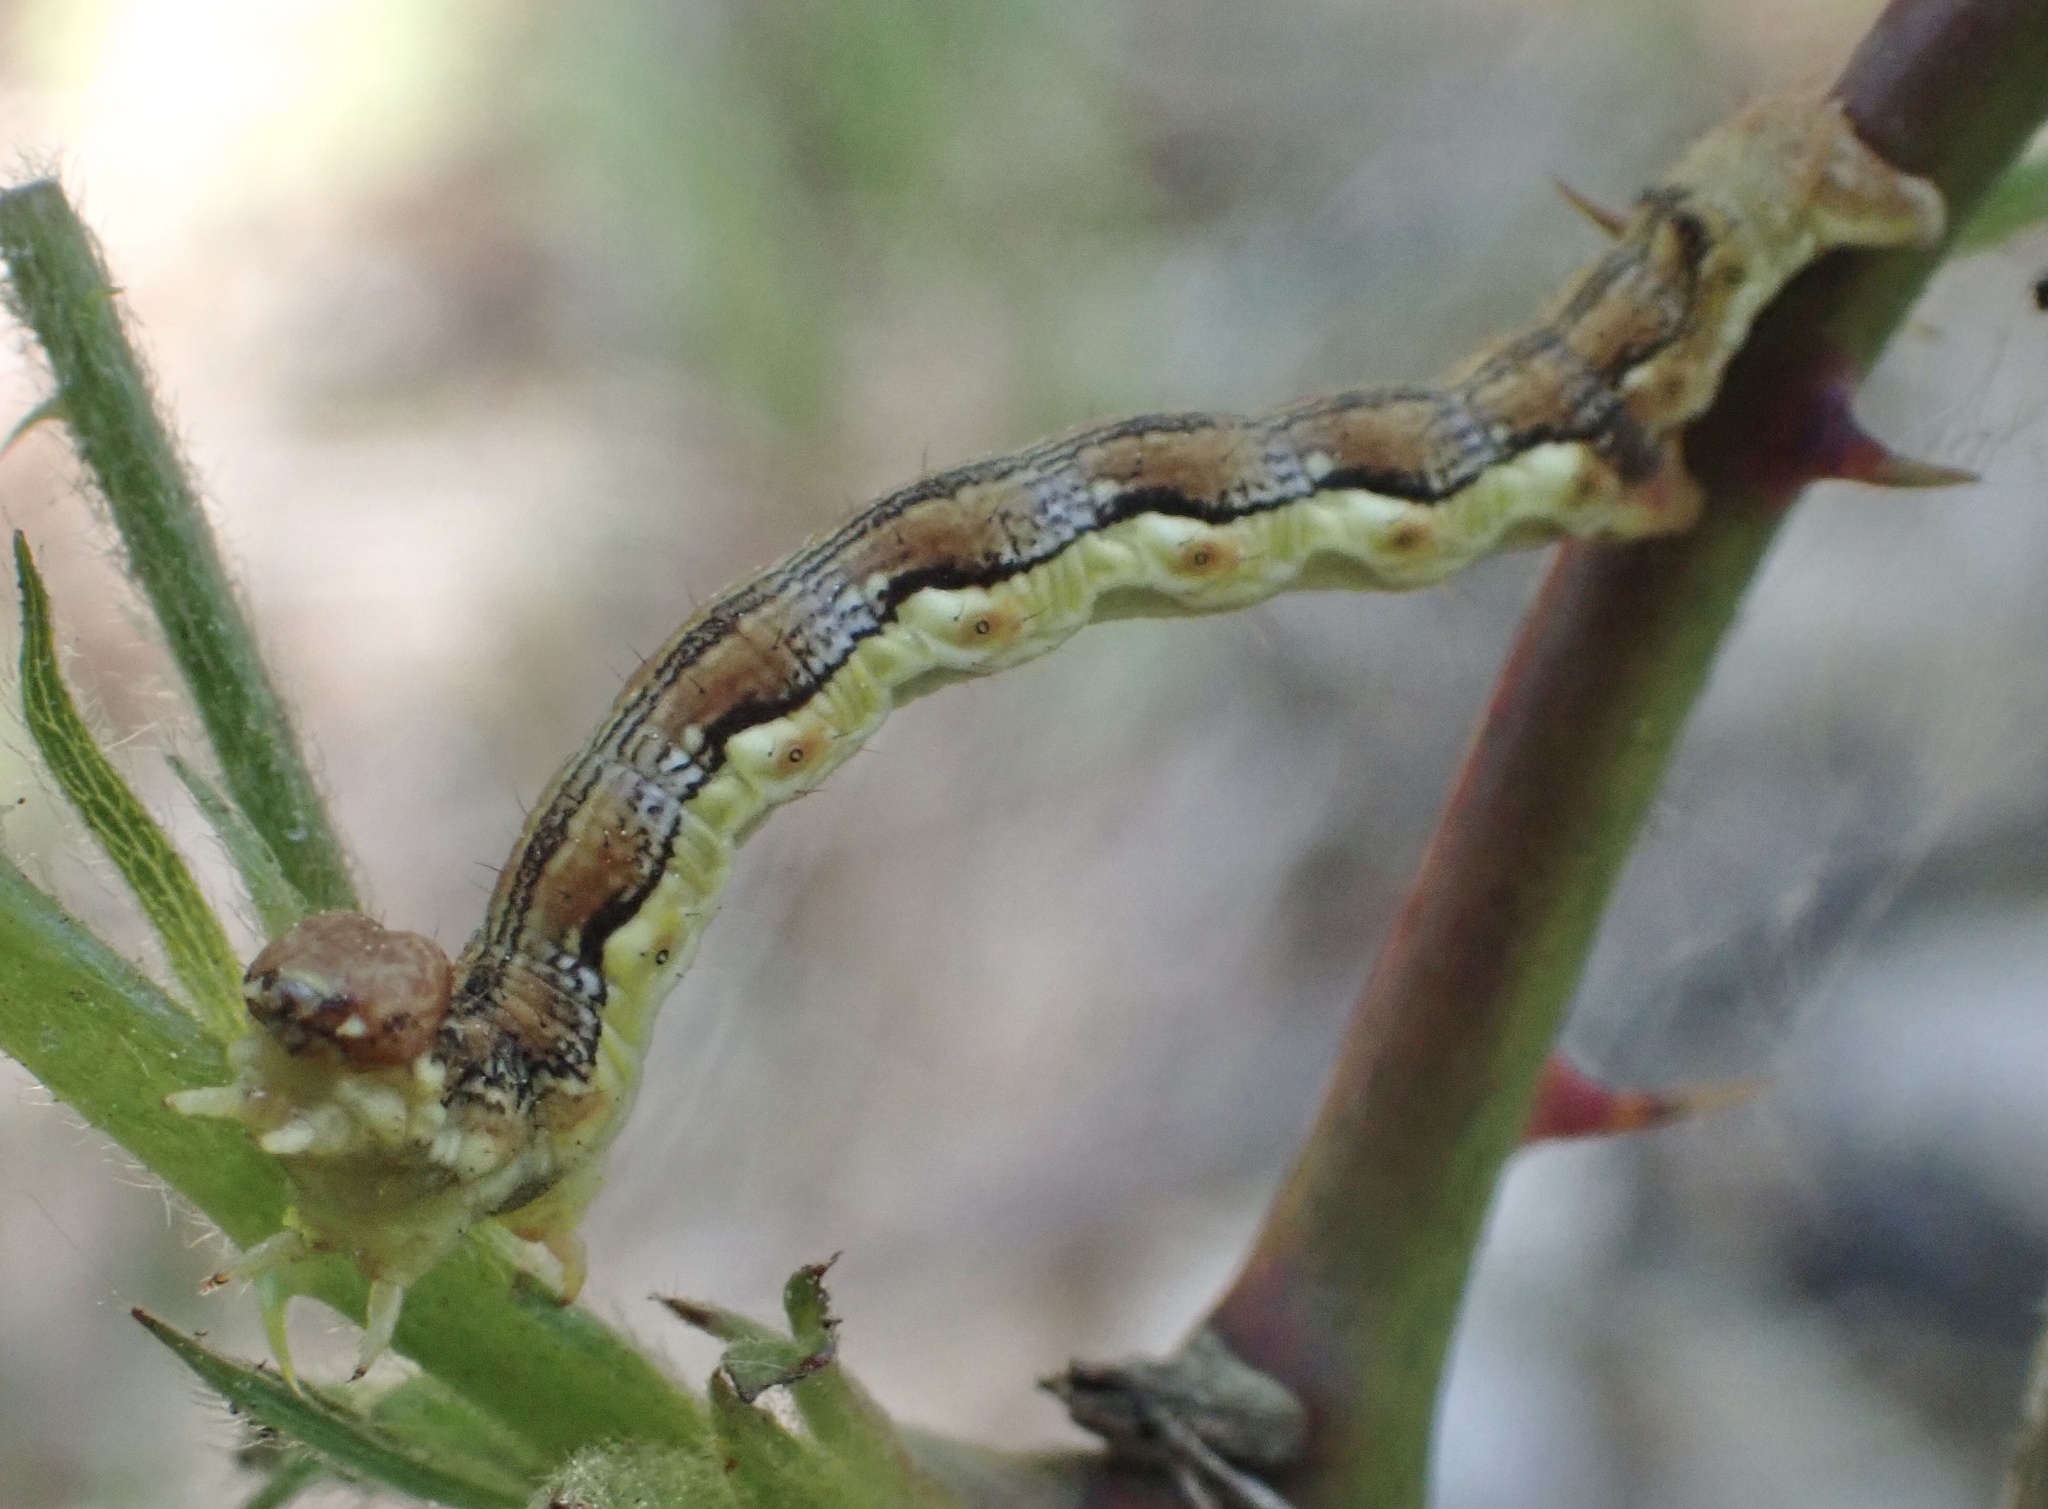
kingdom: Animalia
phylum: Arthropoda
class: Insecta
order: Lepidoptera
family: Geometridae
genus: Erannis
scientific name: Erannis defoliaria
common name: Mottled umber
